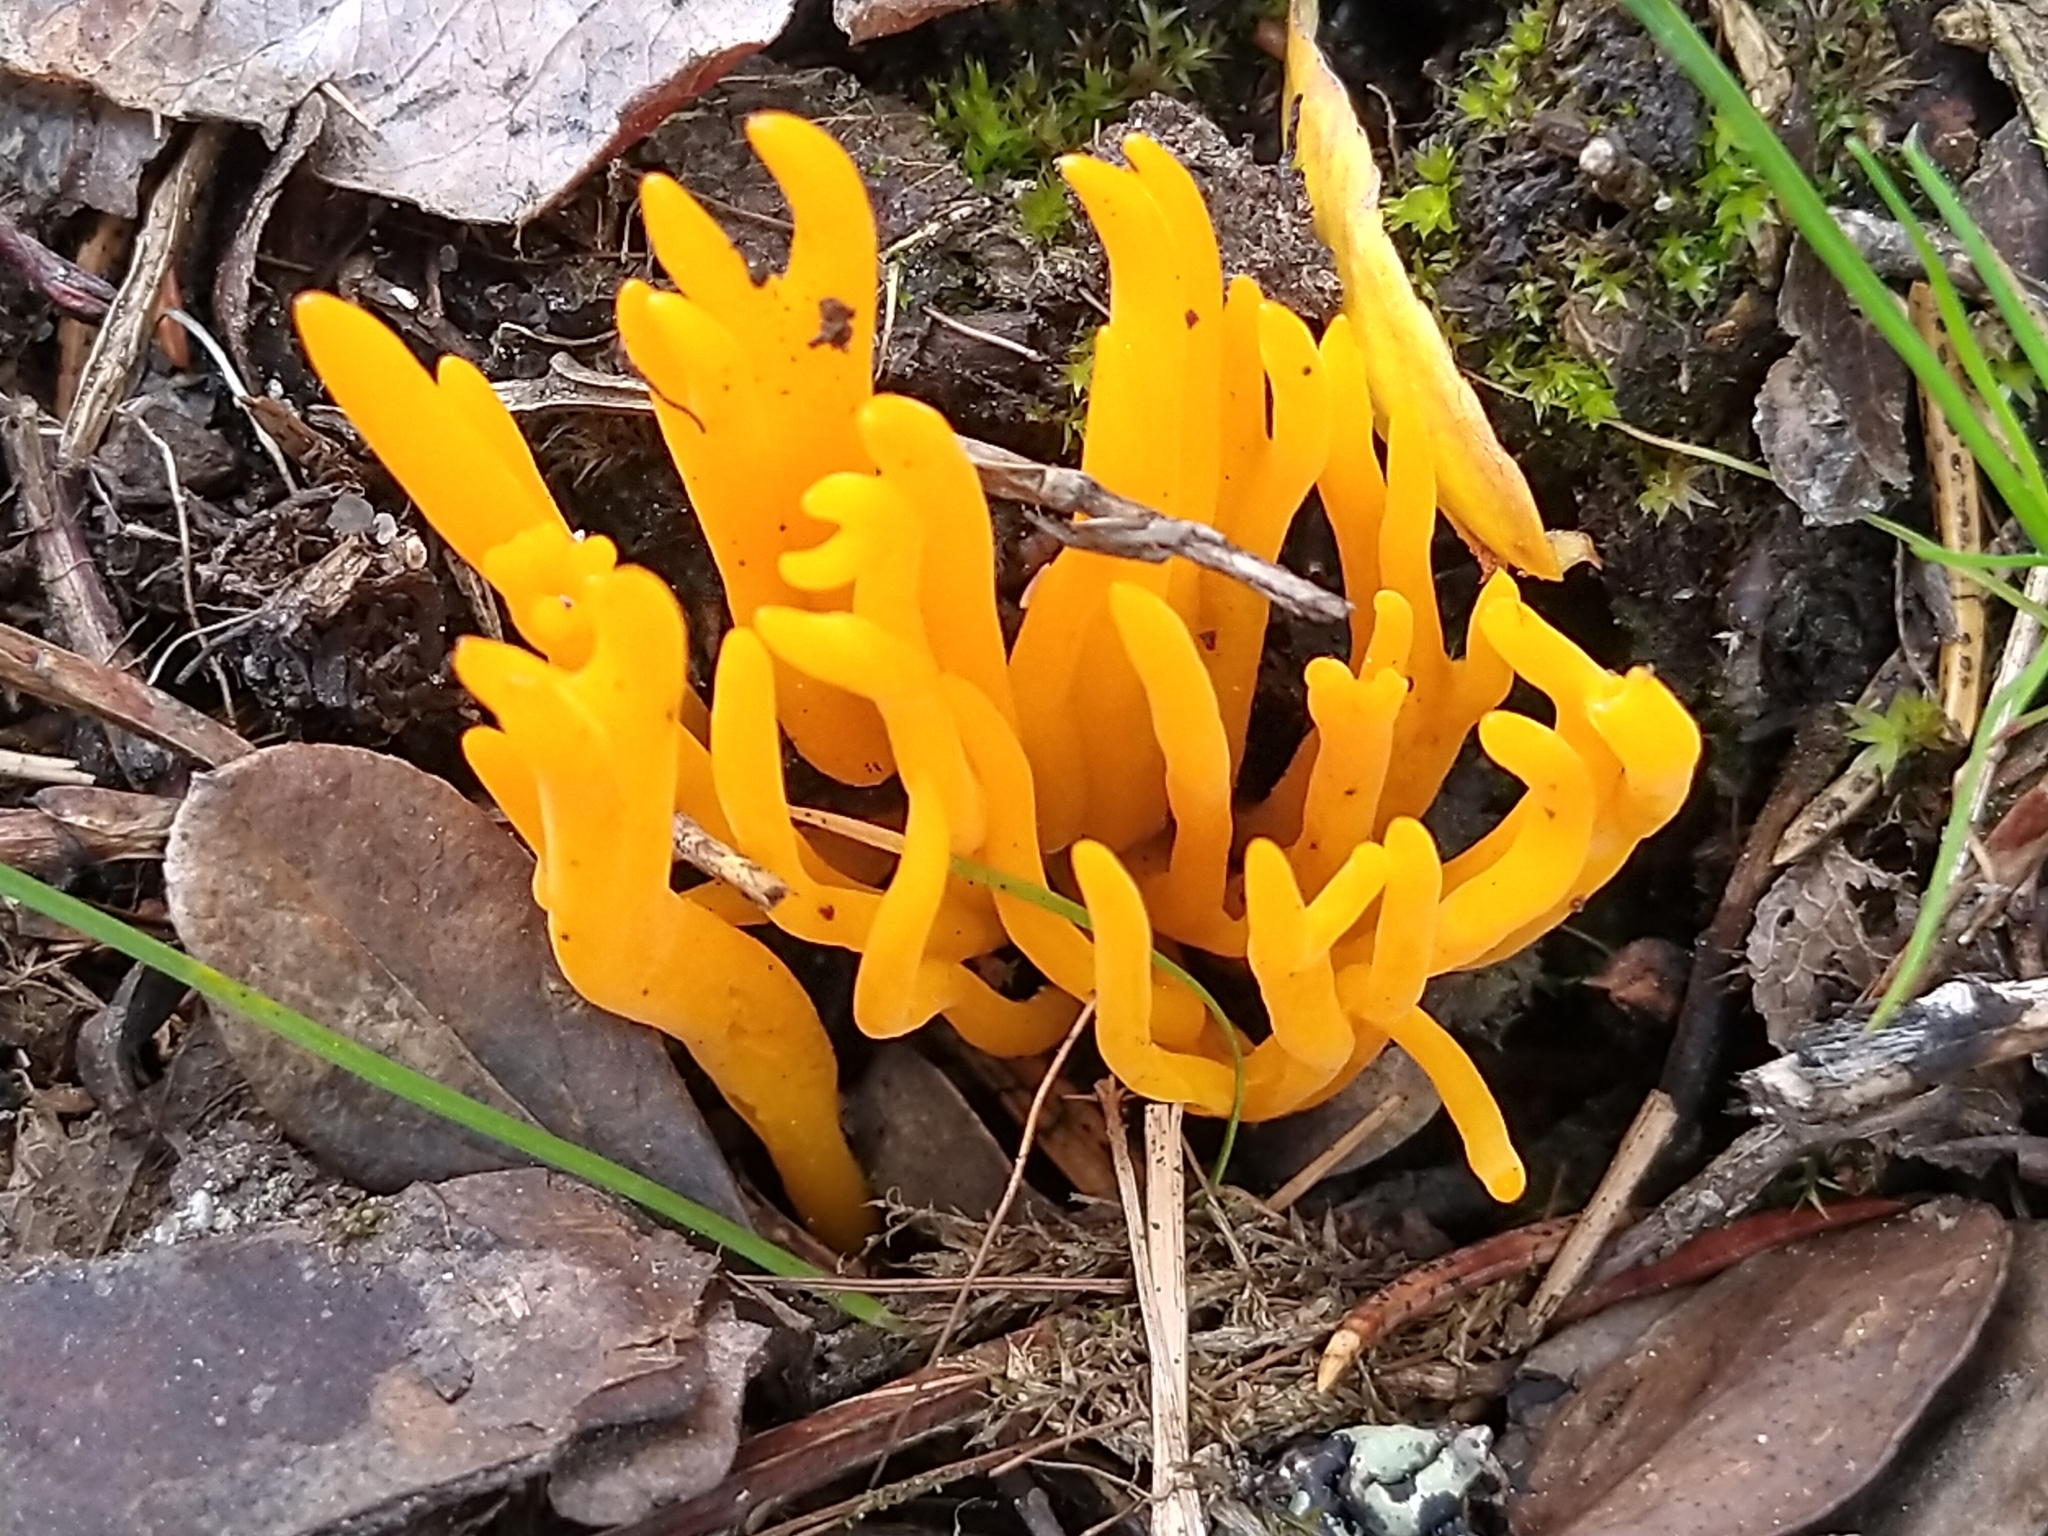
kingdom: Fungi
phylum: Basidiomycota
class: Dacrymycetes
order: Dacrymycetales
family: Dacrymycetaceae
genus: Calocera
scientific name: Calocera viscosa
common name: Yellow stagshorn
